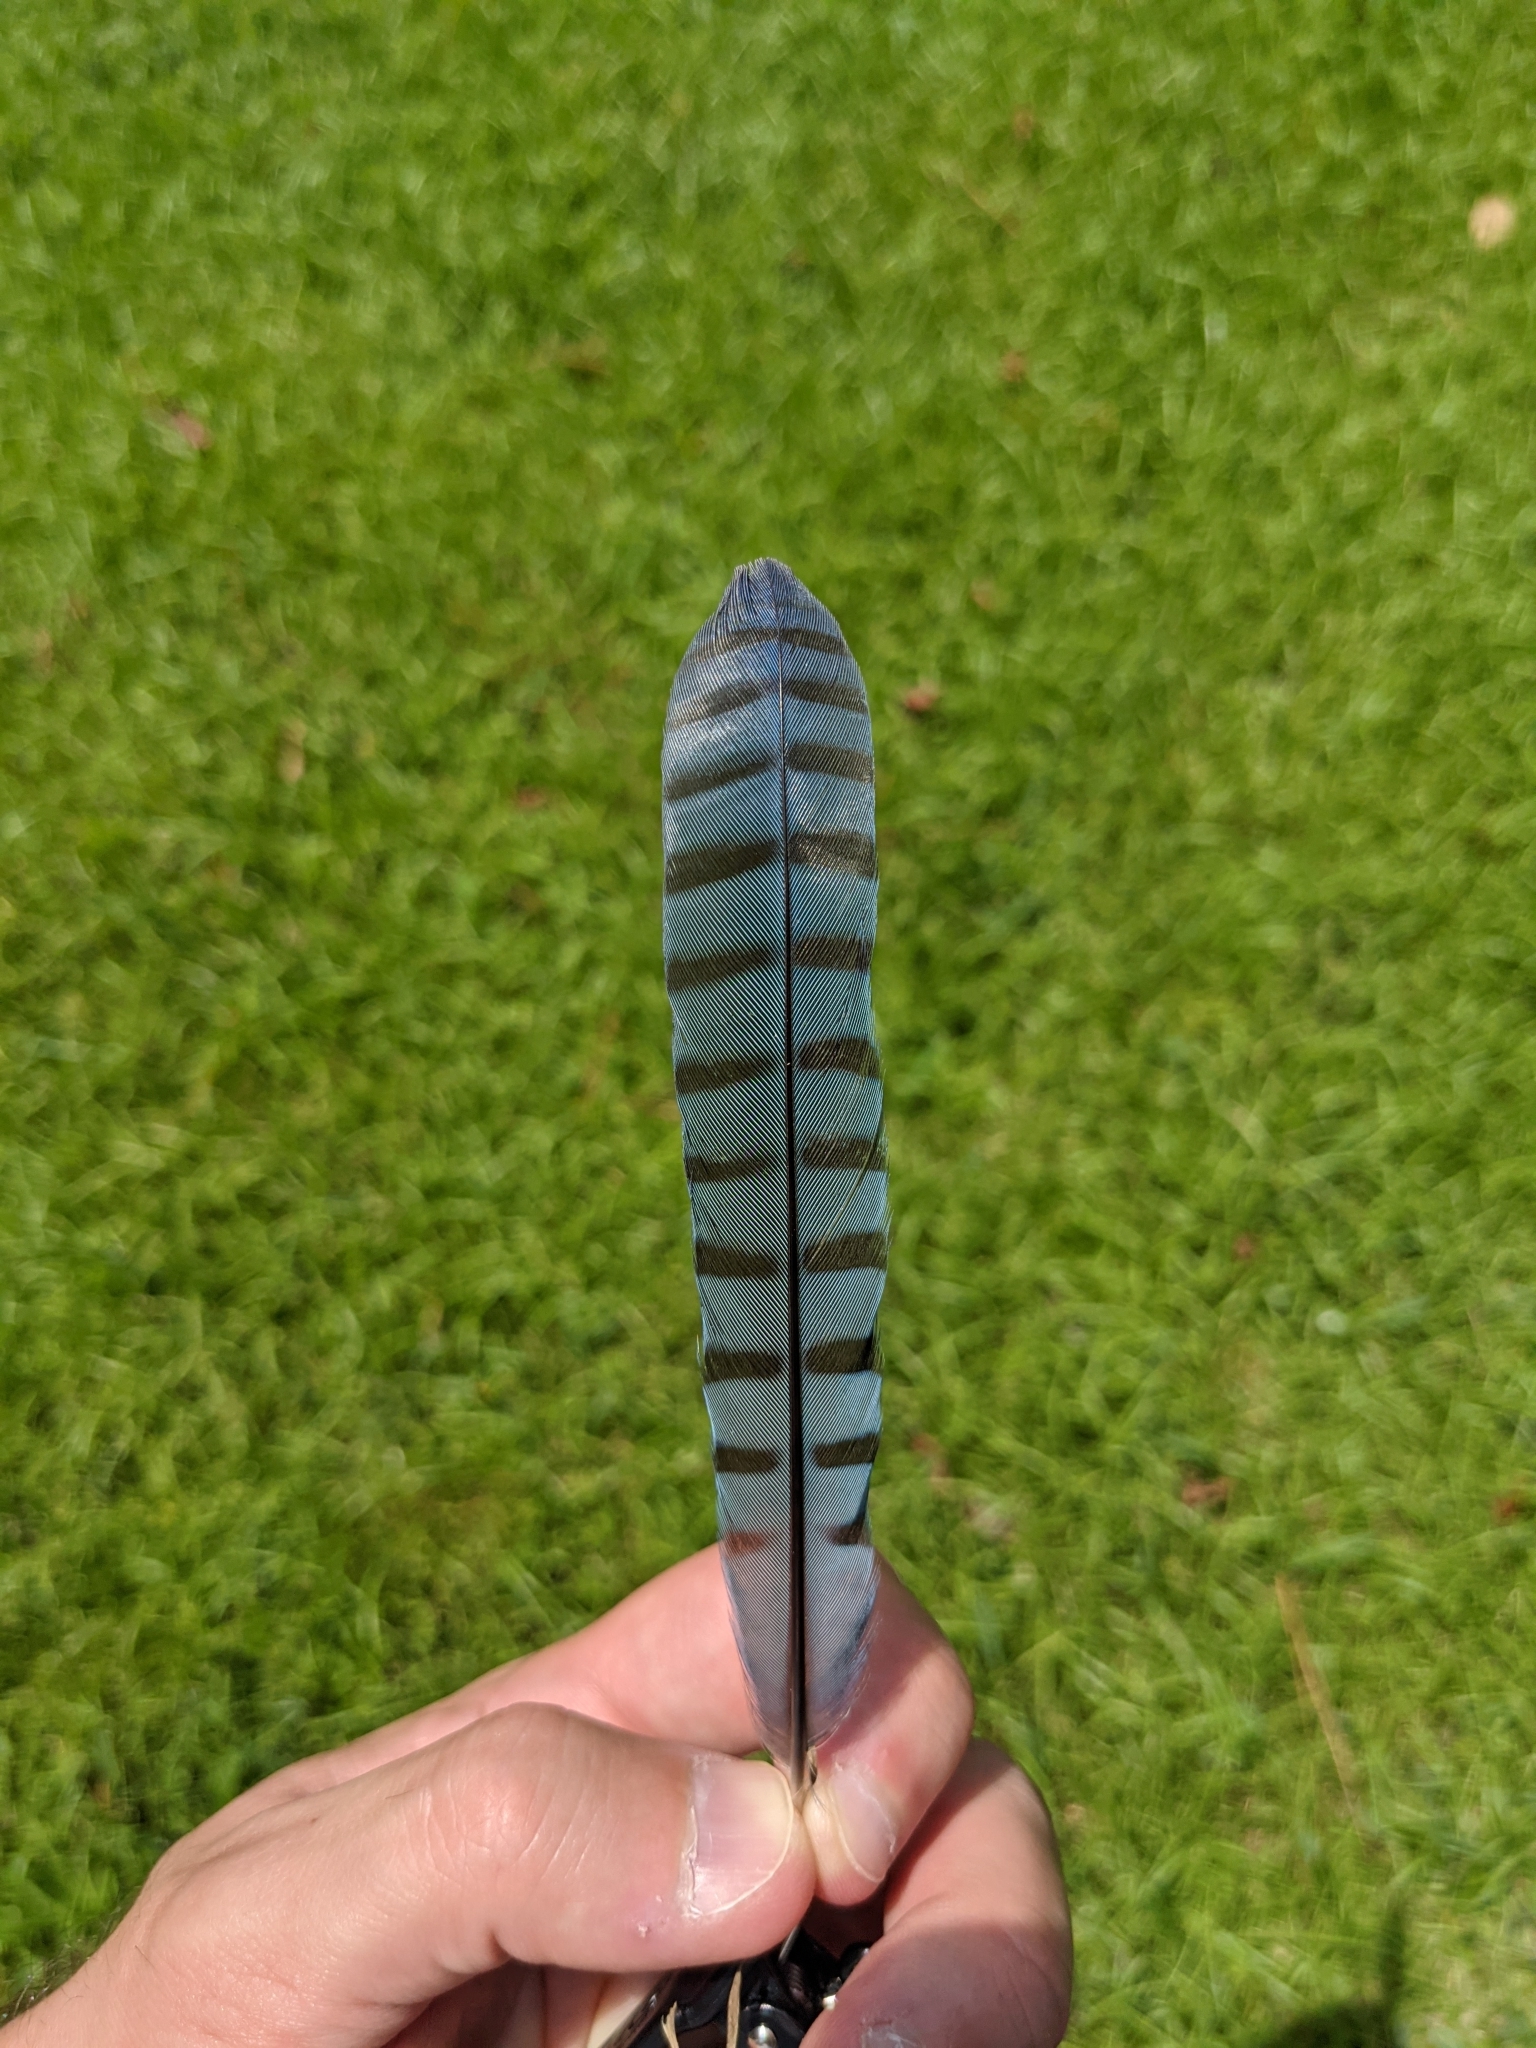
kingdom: Animalia
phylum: Chordata
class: Aves
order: Passeriformes
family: Corvidae
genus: Cyanocitta
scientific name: Cyanocitta cristata
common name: Blue jay
